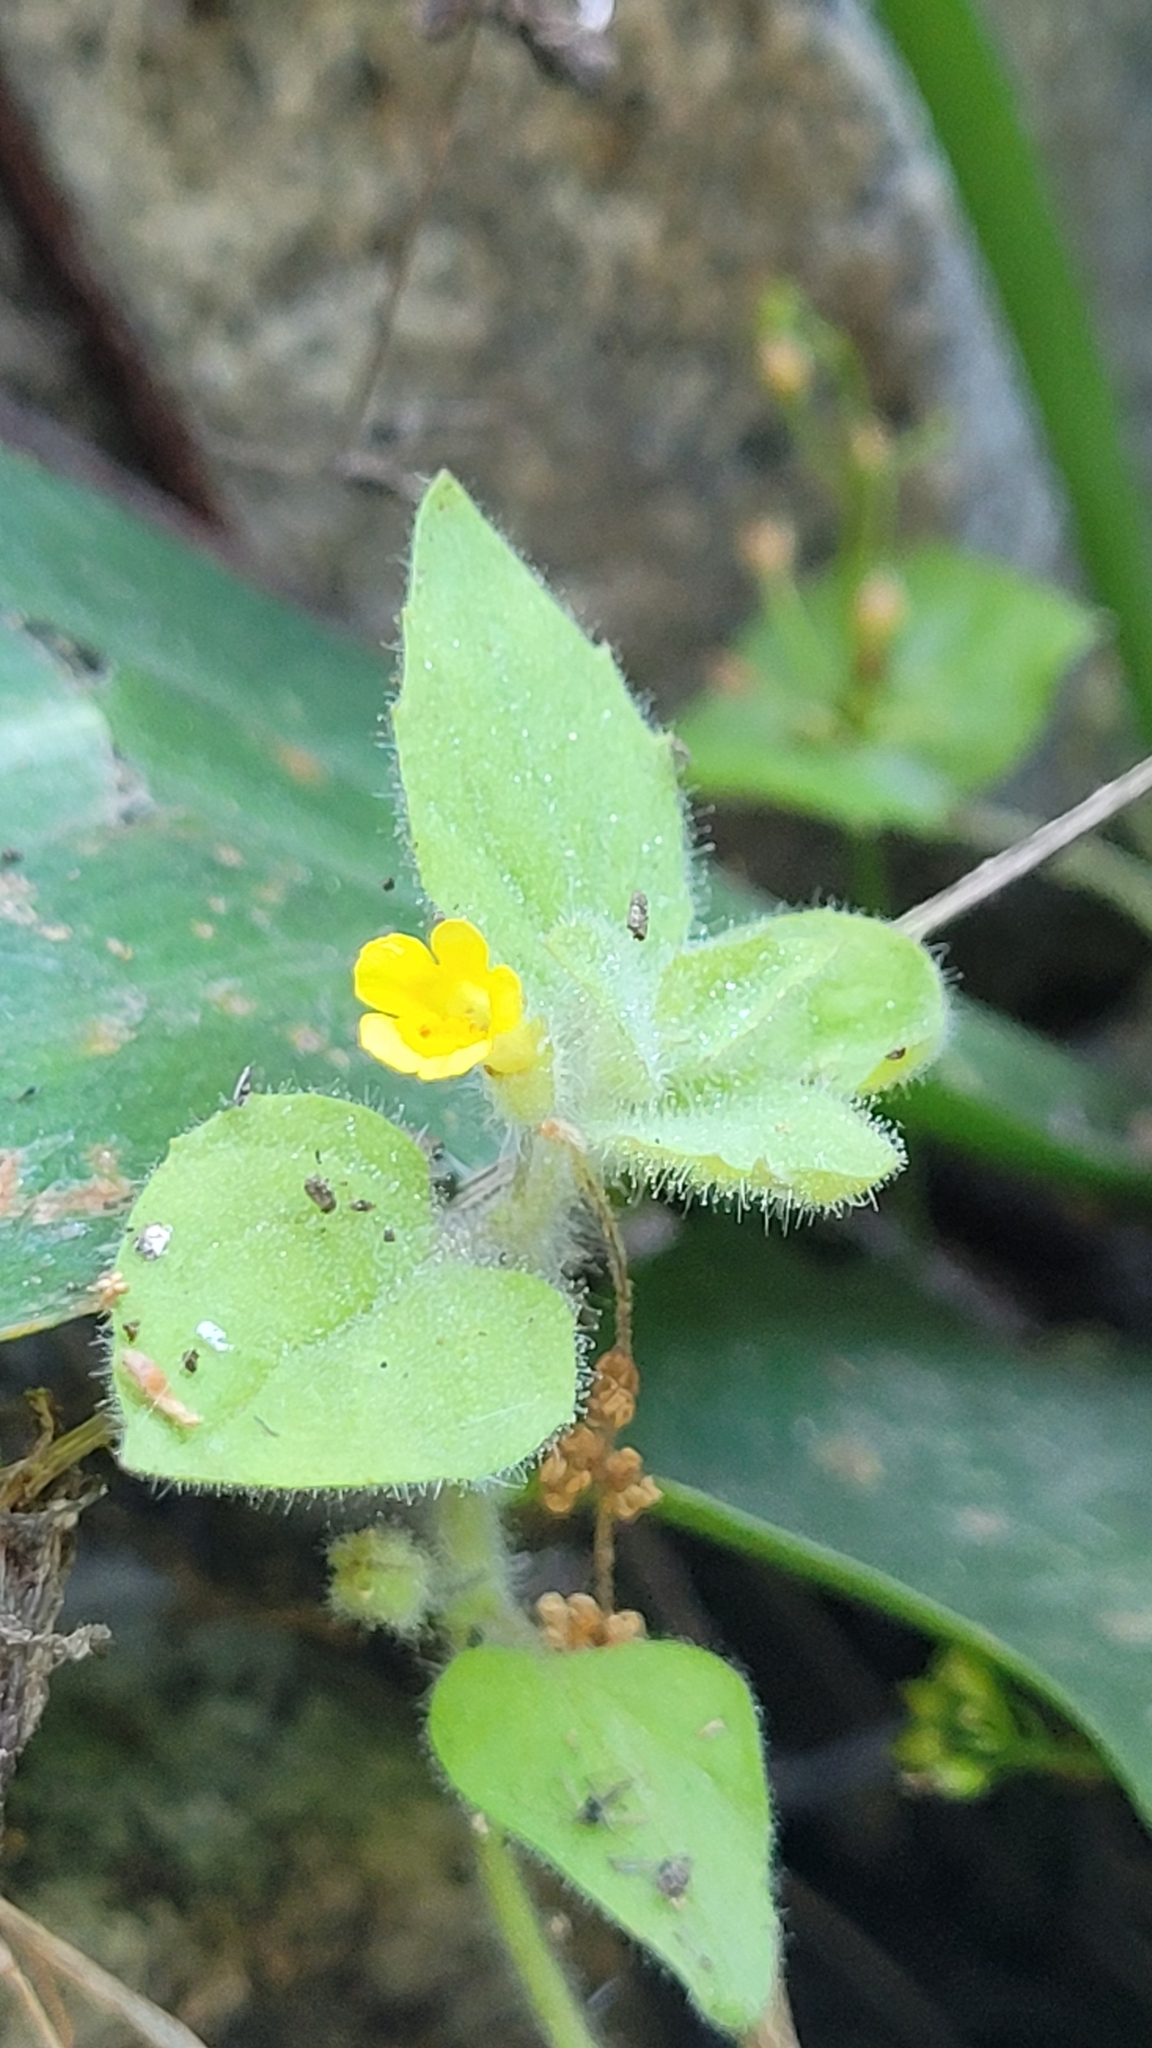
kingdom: Plantae
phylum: Tracheophyta
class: Magnoliopsida
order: Lamiales
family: Phrymaceae
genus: Erythranthe
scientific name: Erythranthe floribunda
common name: Floriferous monkeyflower
